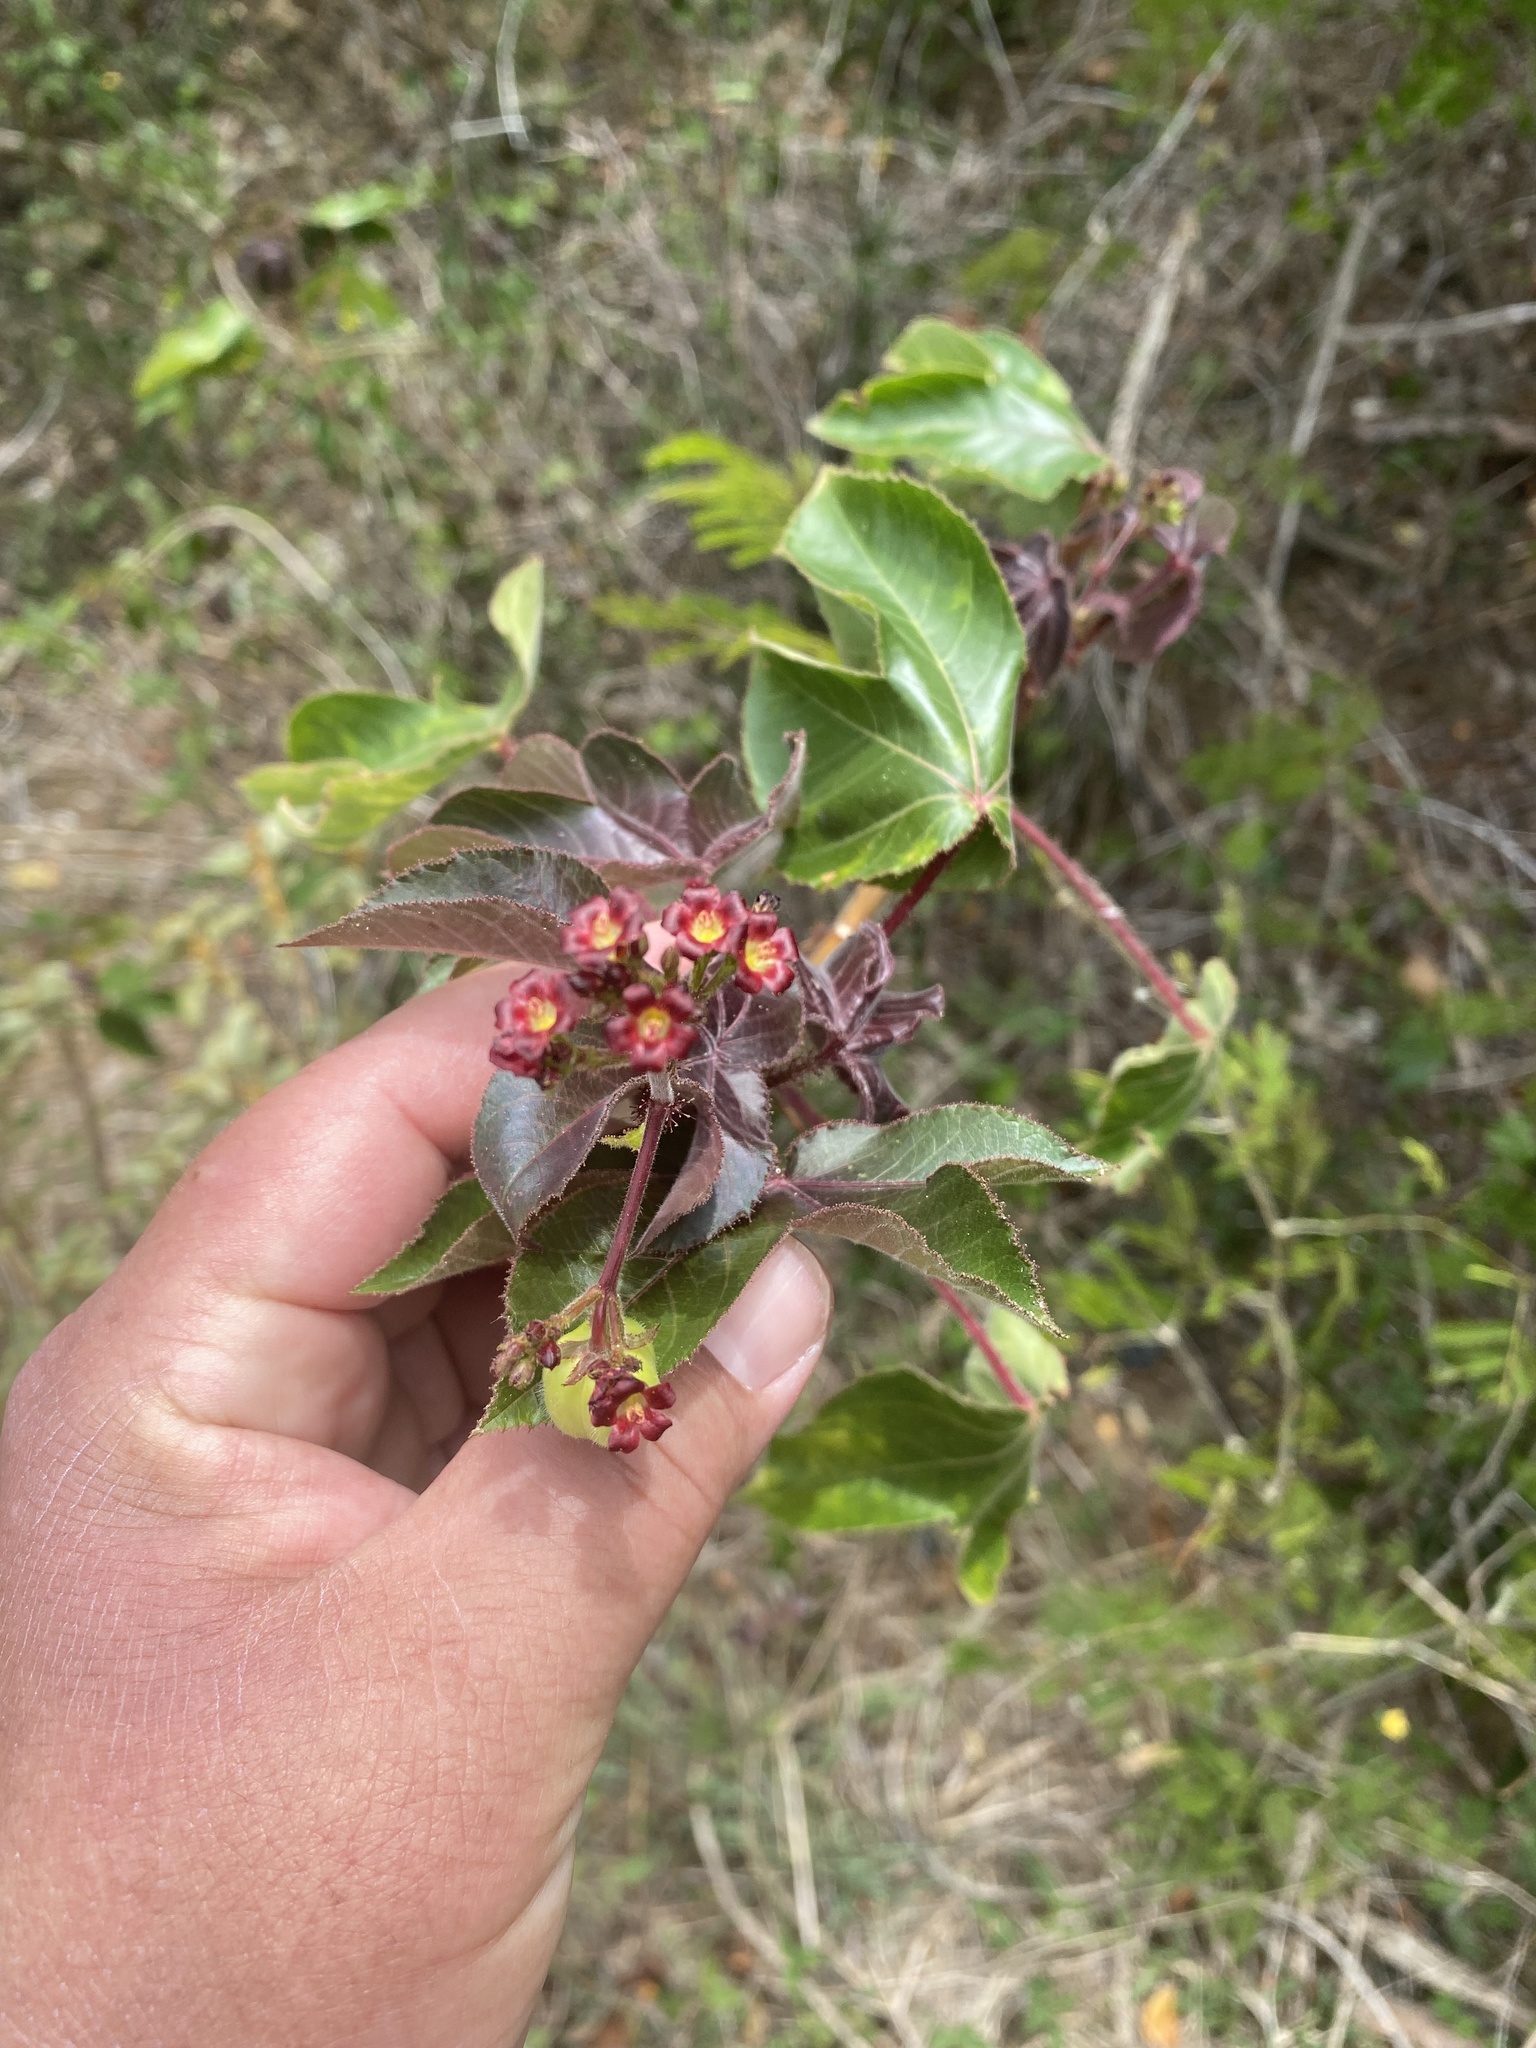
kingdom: Plantae
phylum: Tracheophyta
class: Magnoliopsida
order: Malpighiales
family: Euphorbiaceae
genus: Jatropha
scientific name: Jatropha gossypiifolia
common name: Bellyache bush
